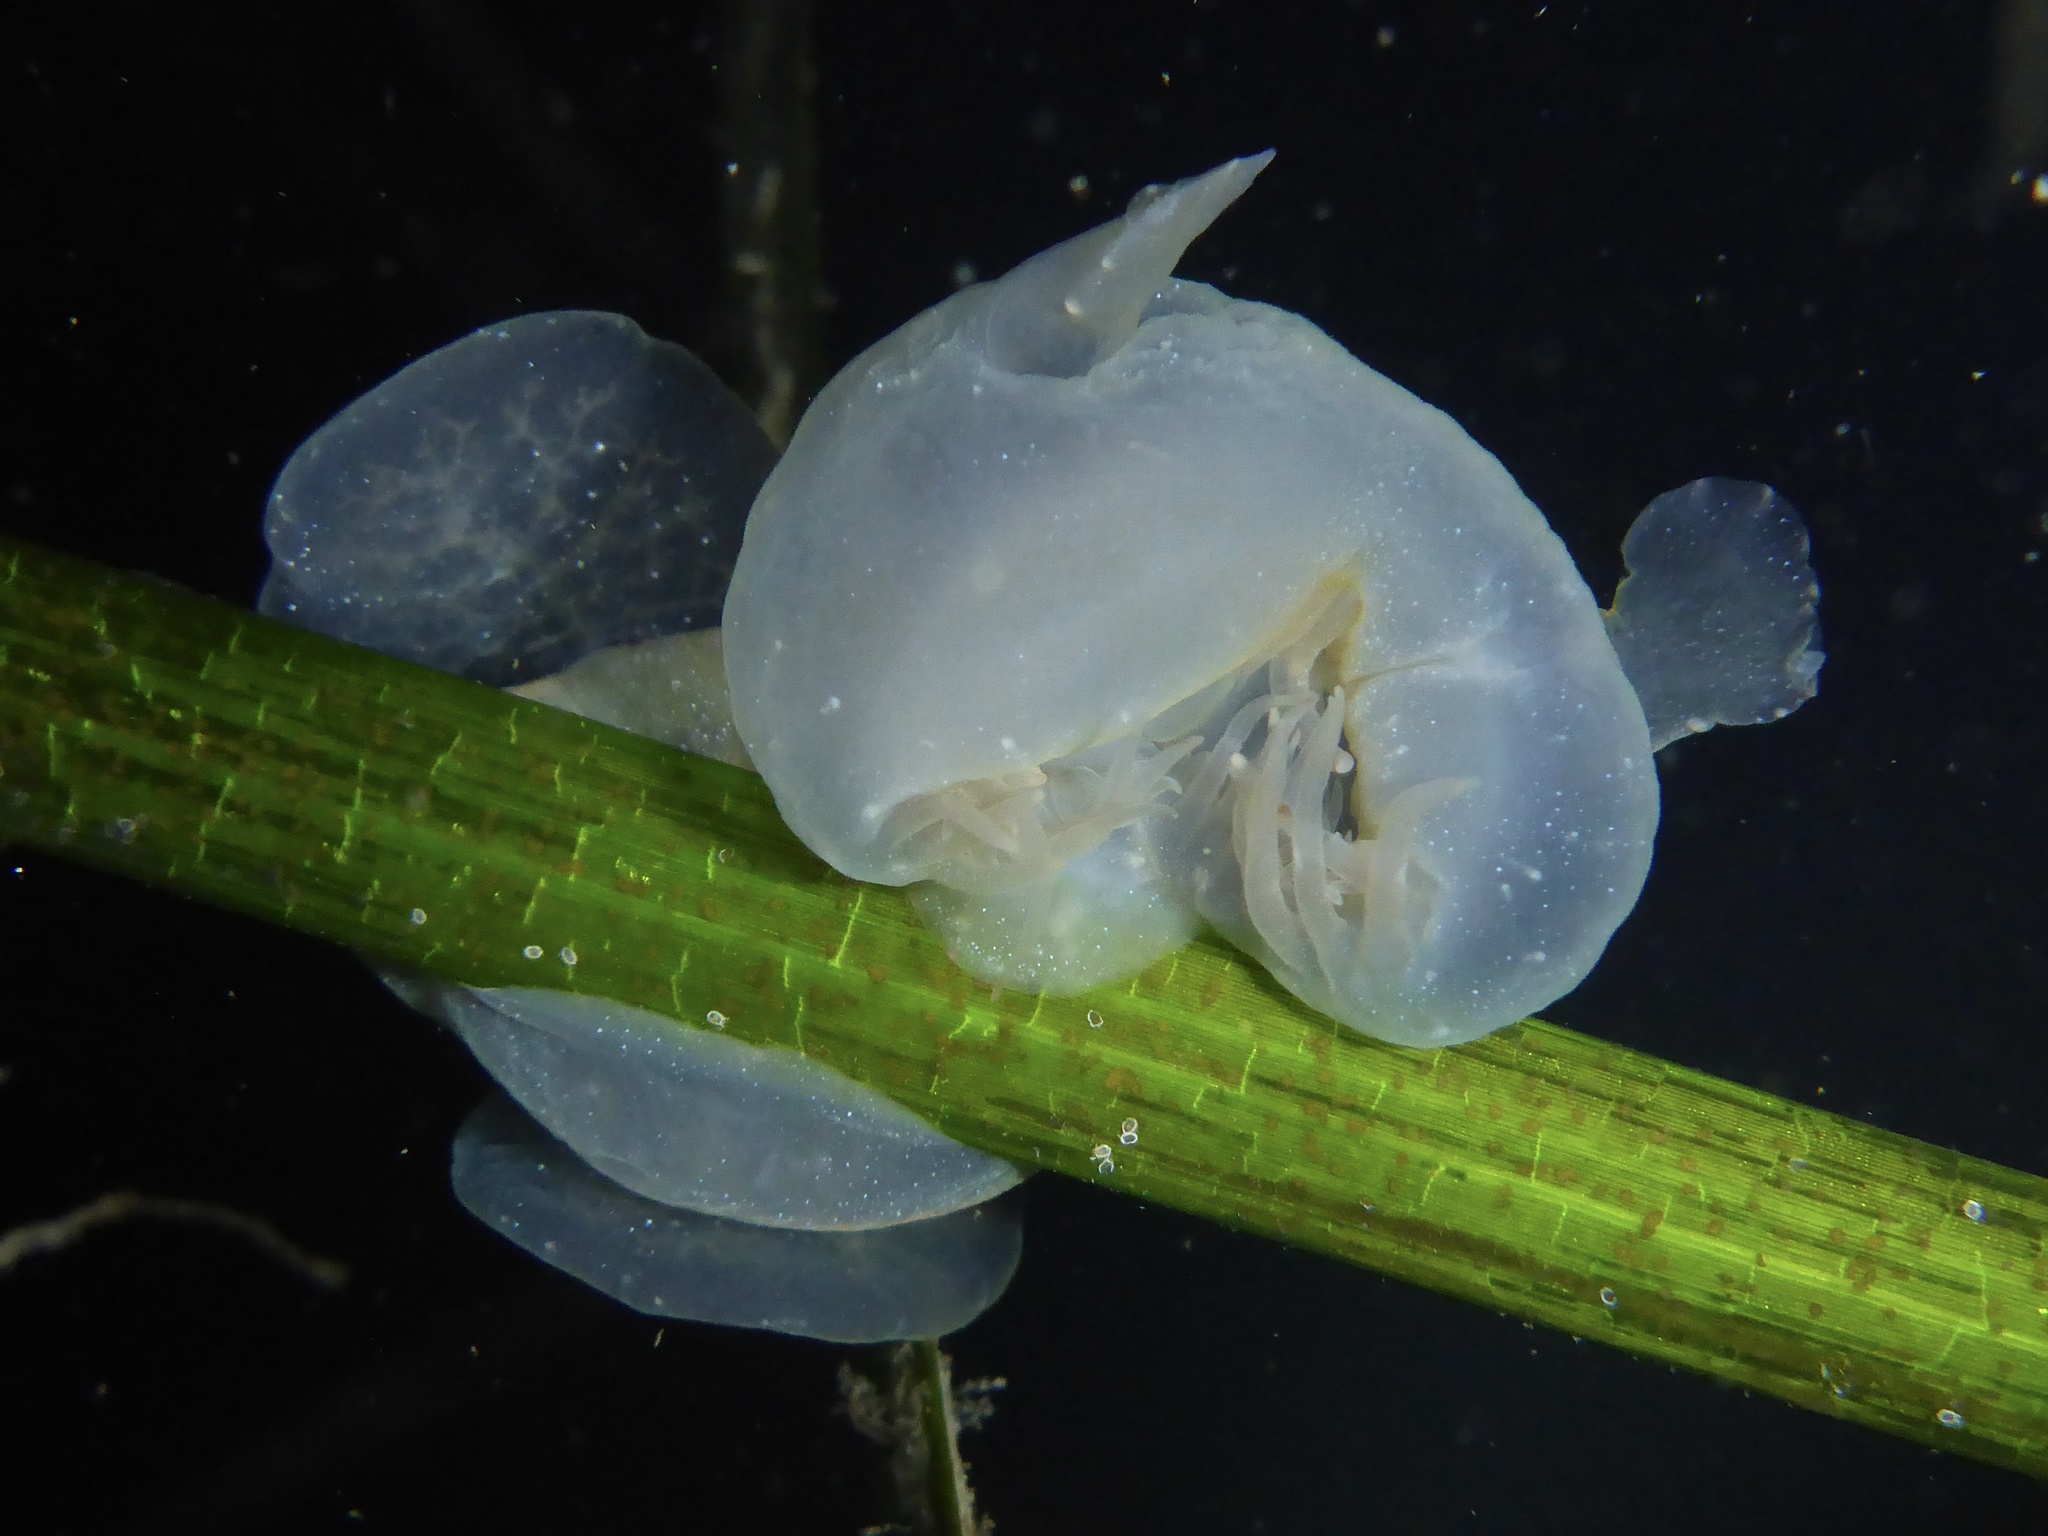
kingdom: Animalia
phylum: Mollusca
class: Gastropoda
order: Nudibranchia
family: Tethydidae
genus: Melibe
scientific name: Melibe leonina
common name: Lion nudibranch
